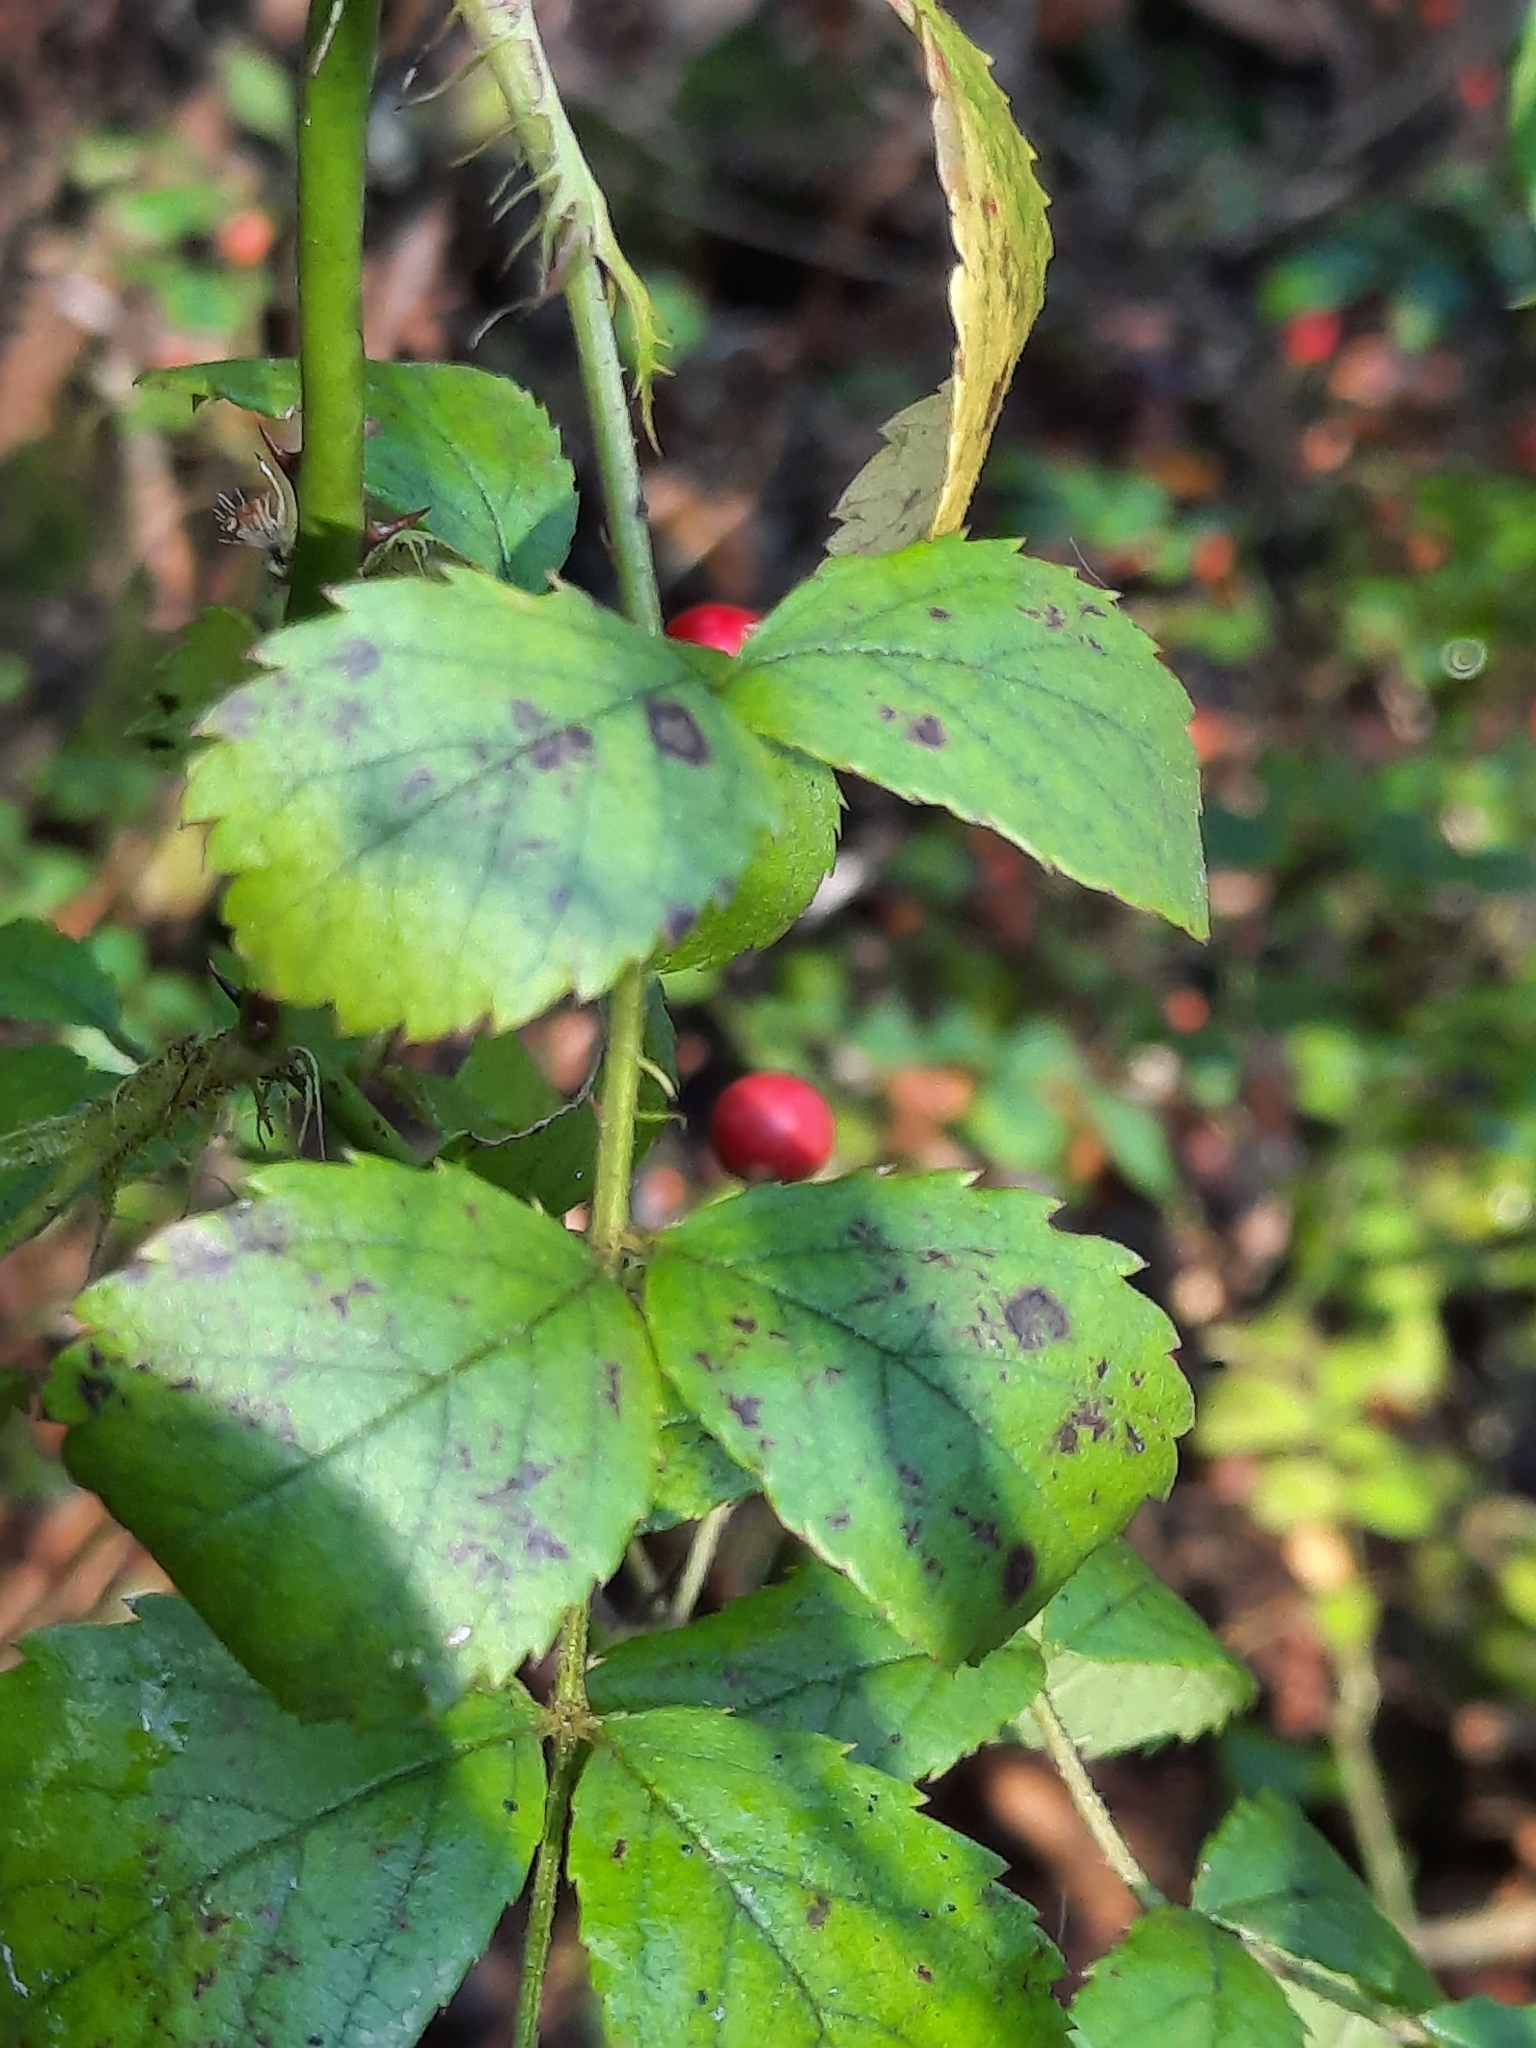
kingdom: Plantae
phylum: Tracheophyta
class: Magnoliopsida
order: Rosales
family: Rosaceae
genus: Rosa
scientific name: Rosa multiflora
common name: Multiflora rose
